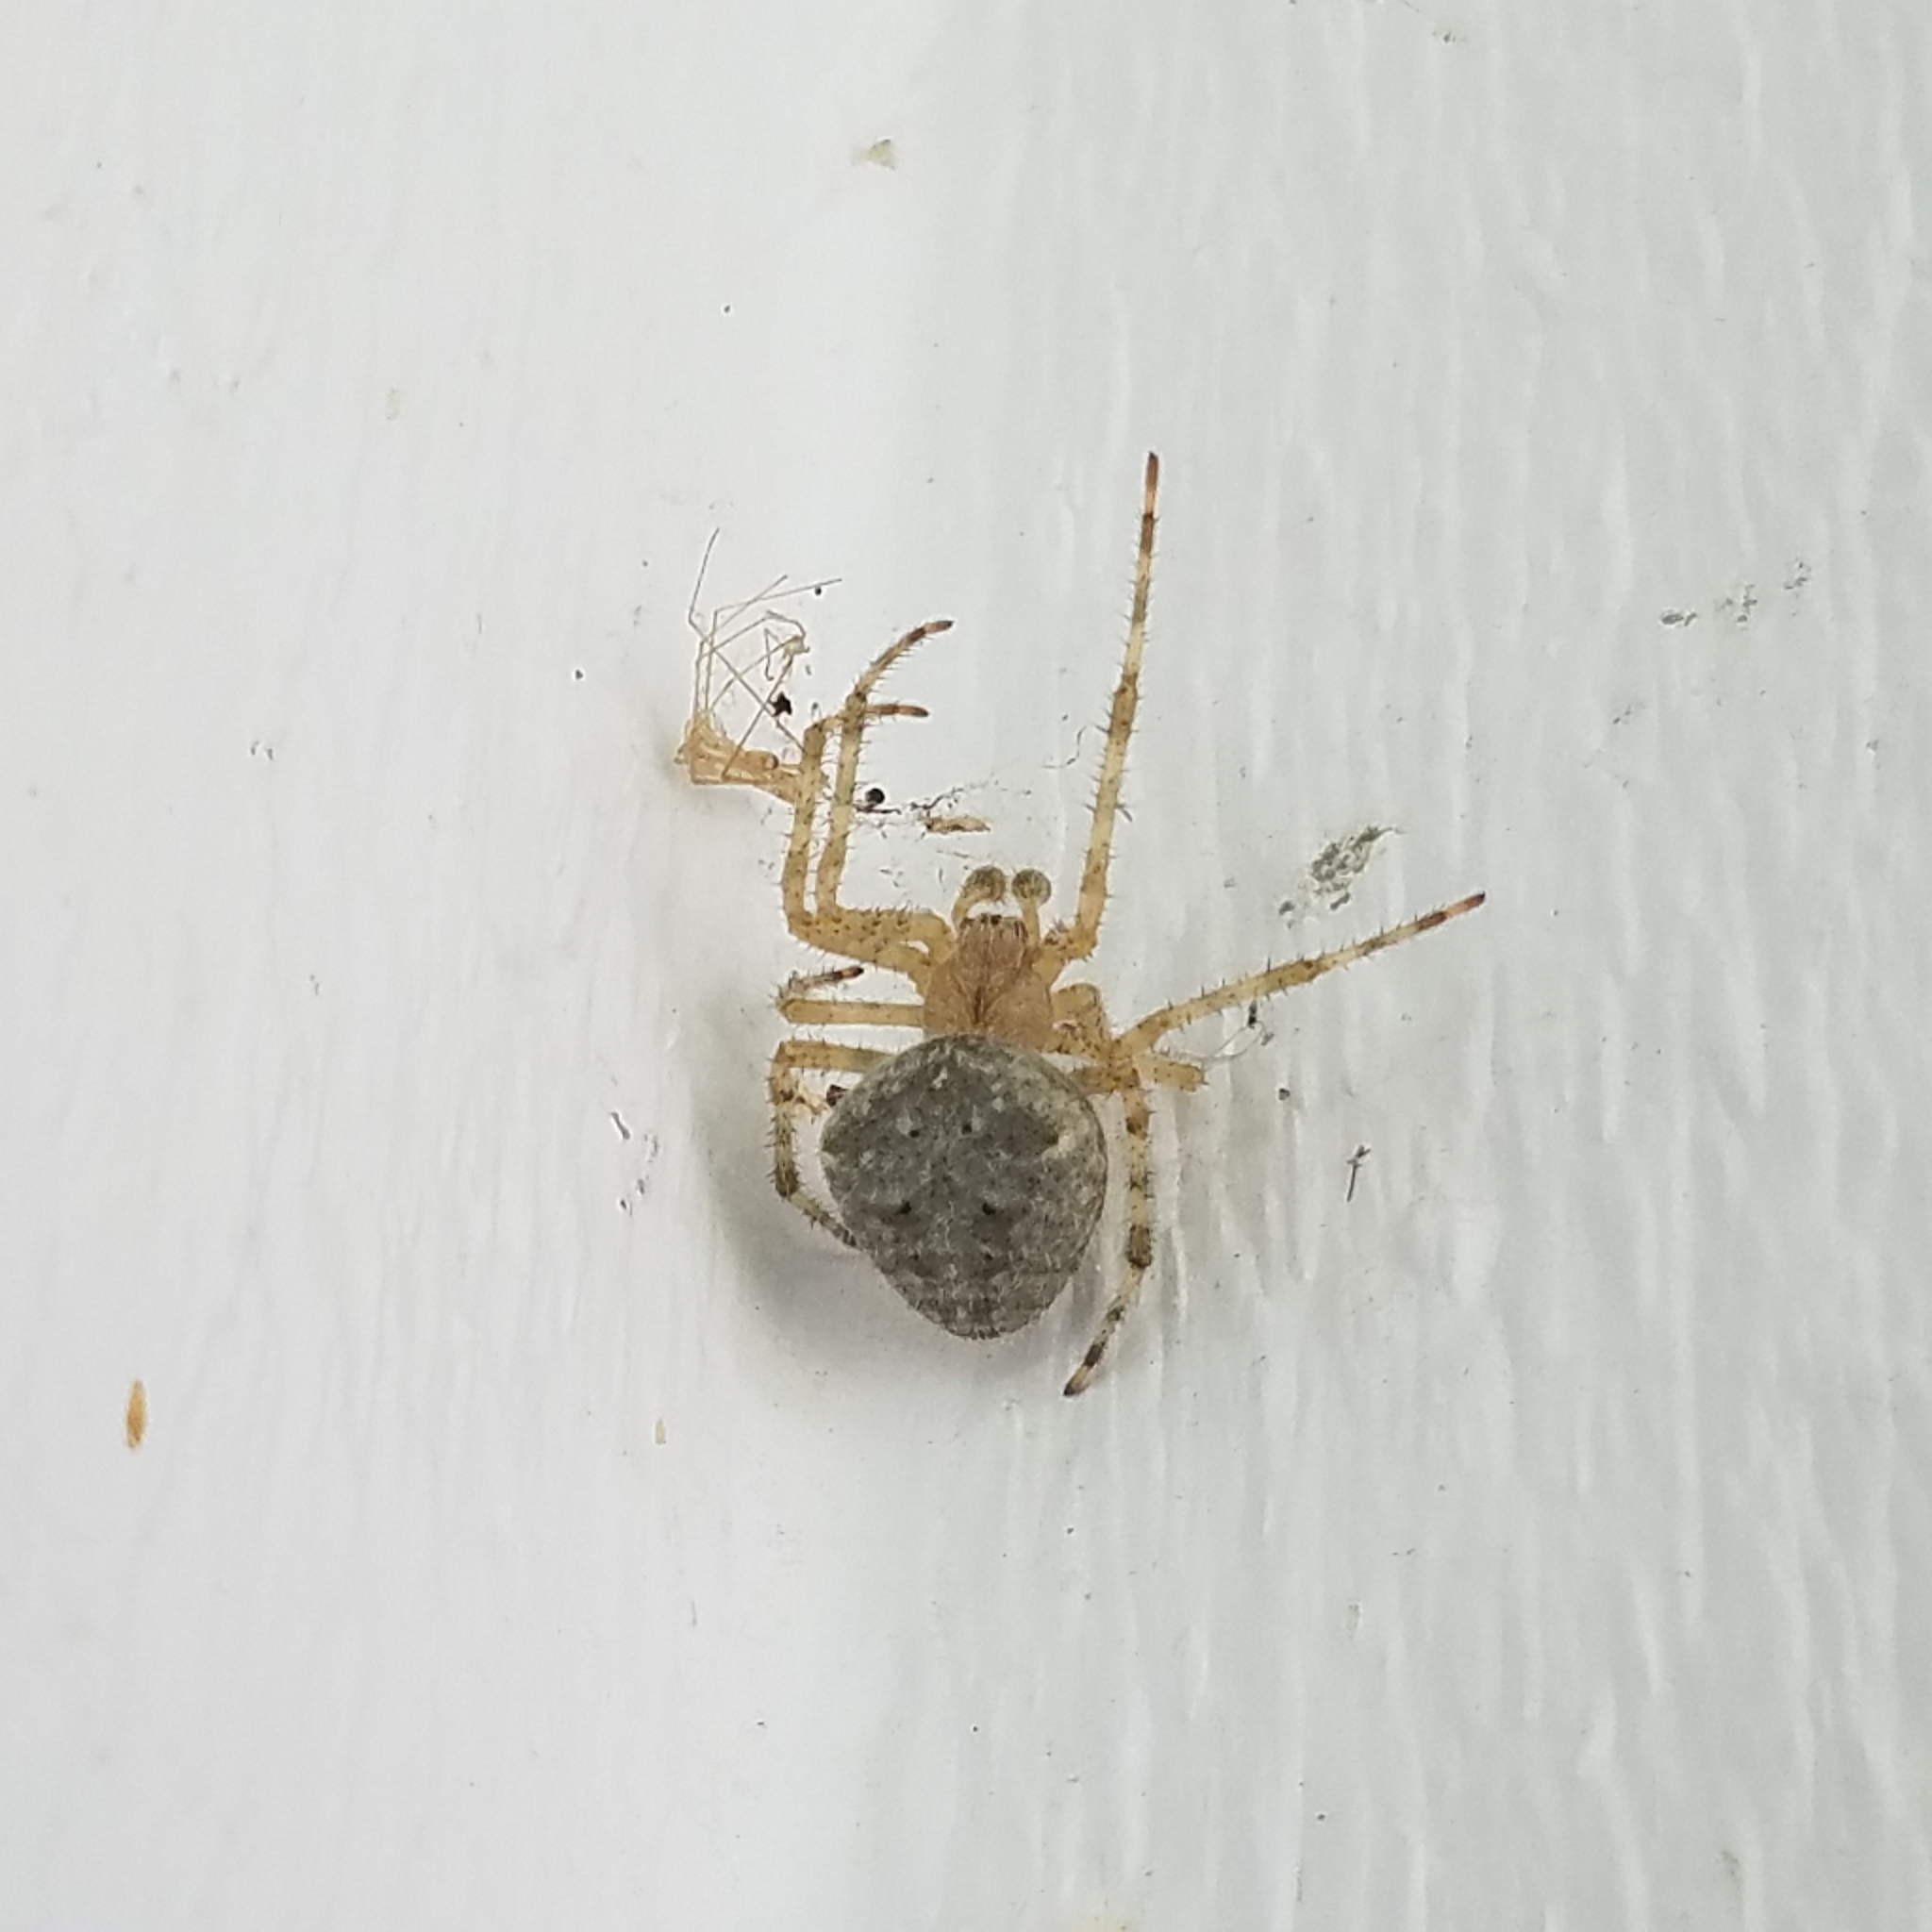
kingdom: Animalia
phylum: Arthropoda
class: Arachnida
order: Araneae
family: Araneidae
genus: Araneus
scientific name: Araneus cavaticus
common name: Barn orbweaver
